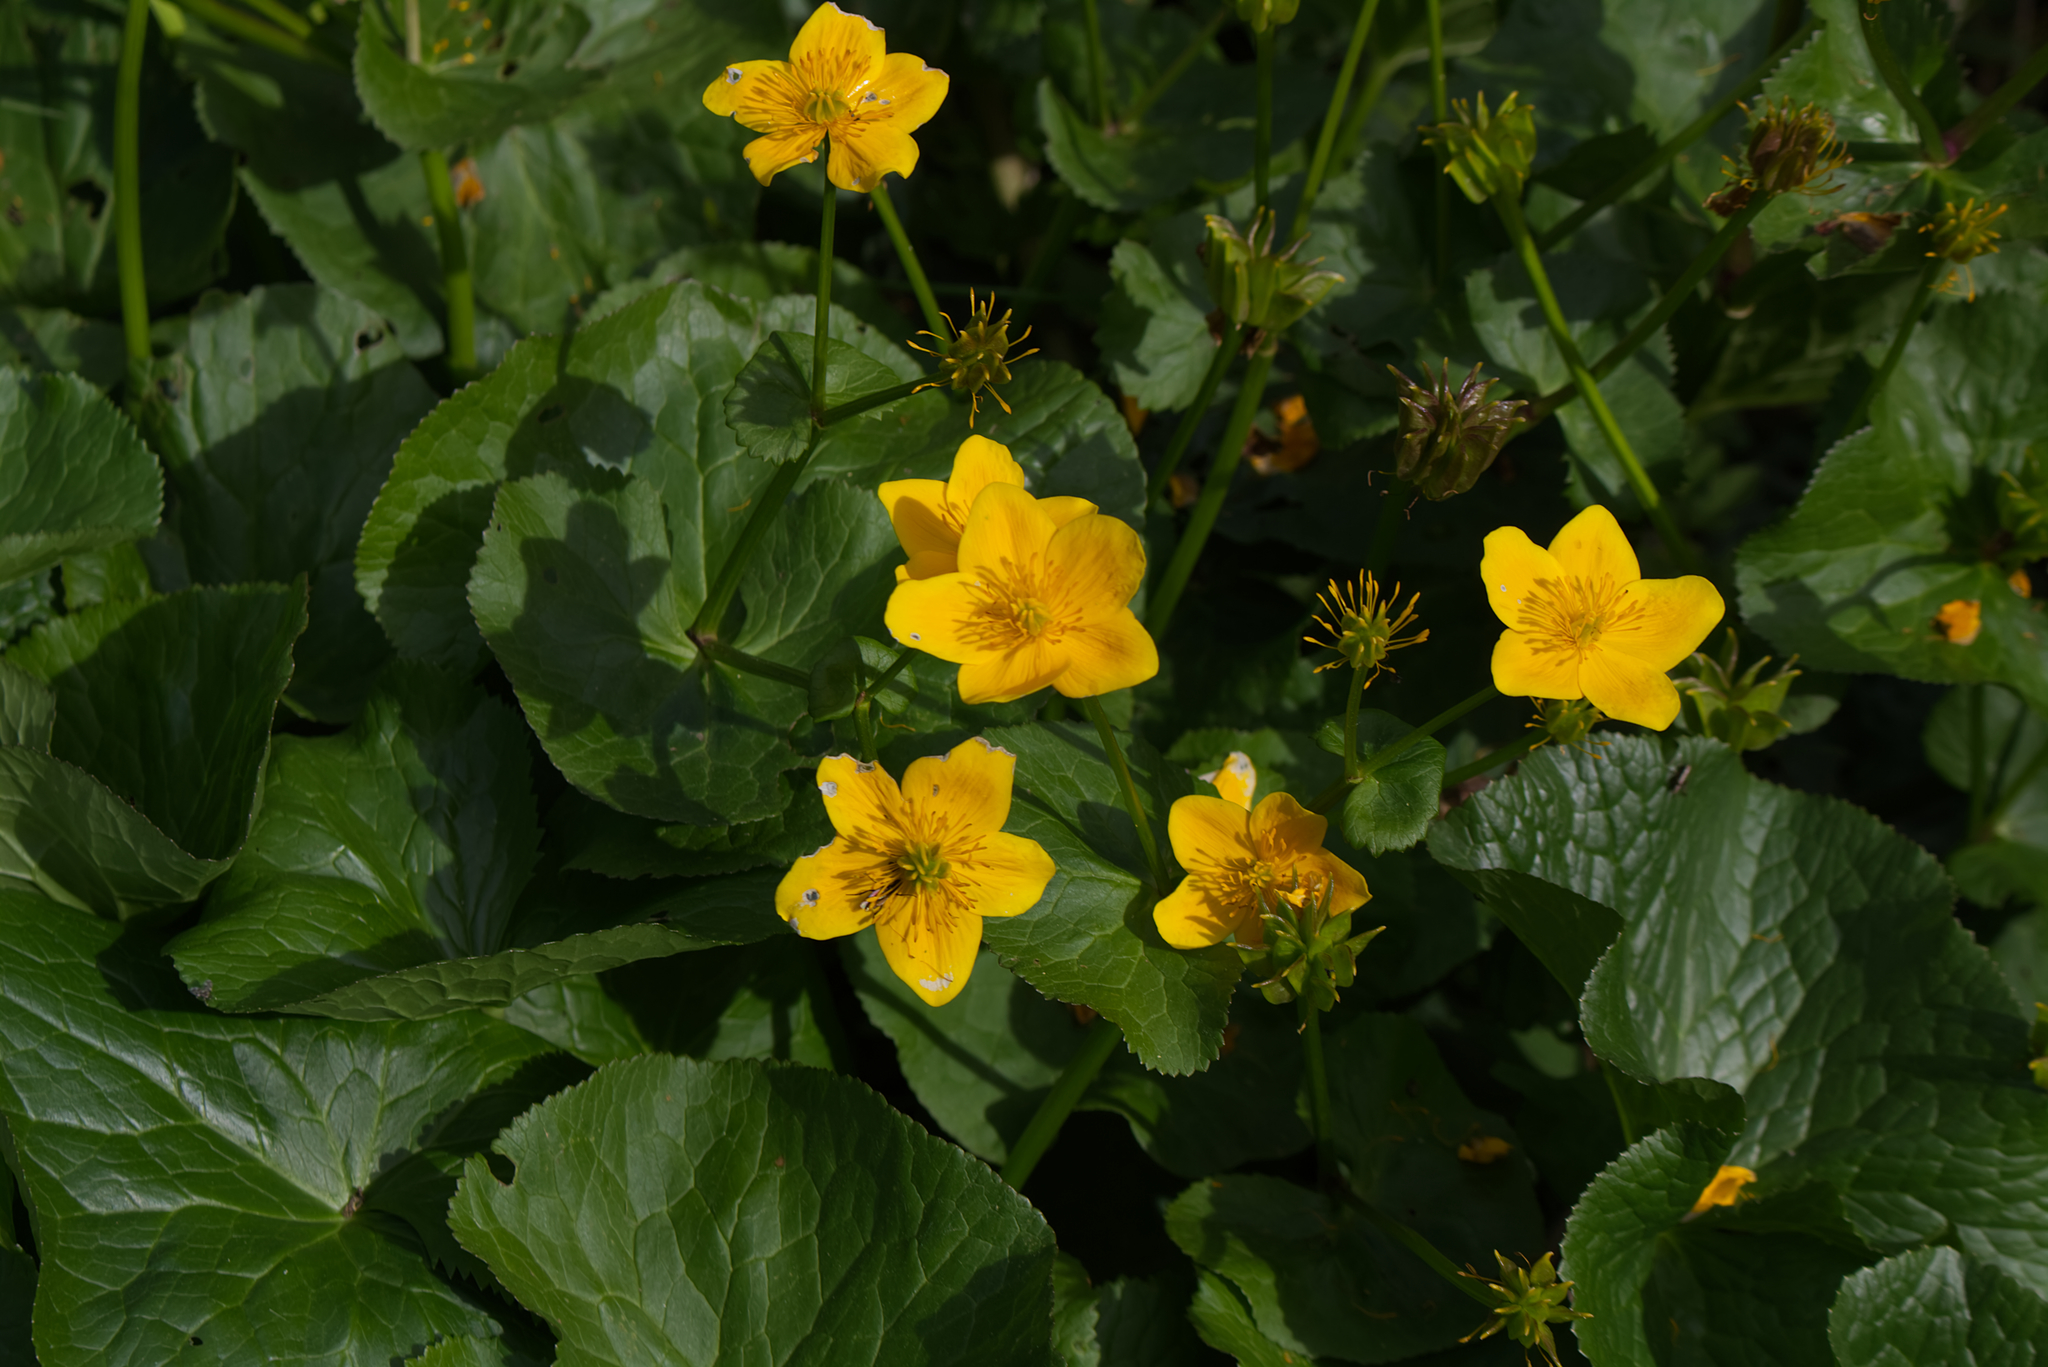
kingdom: Plantae
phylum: Tracheophyta
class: Magnoliopsida
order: Ranunculales
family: Ranunculaceae
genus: Caltha
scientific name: Caltha palustris
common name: Marsh marigold
